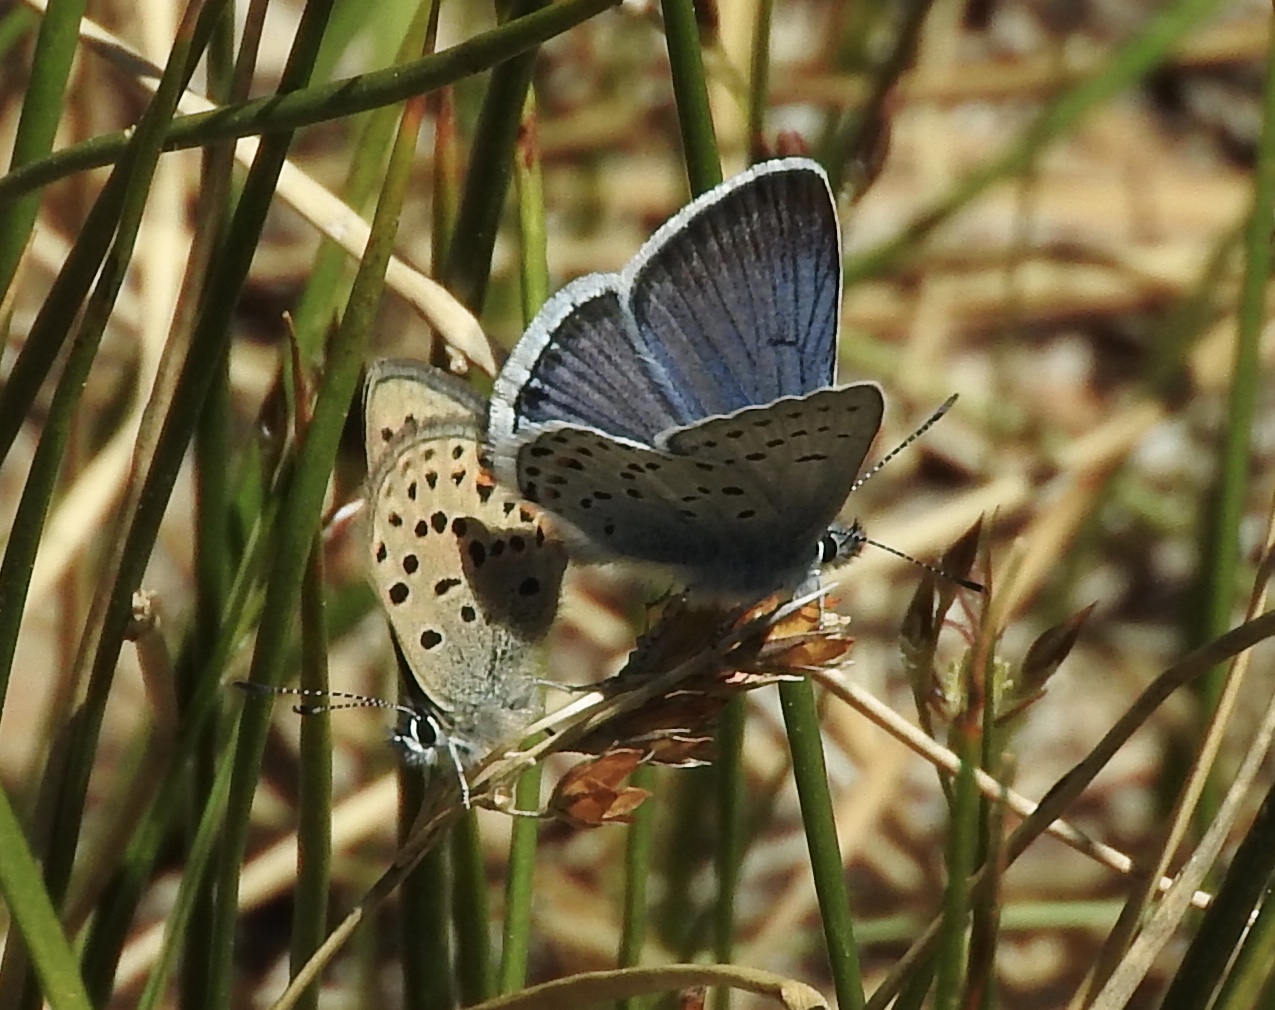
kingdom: Animalia
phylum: Arthropoda
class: Insecta
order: Lepidoptera
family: Lycaenidae
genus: Icaricia
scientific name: Icaricia saepiolus
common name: Greenish blue
